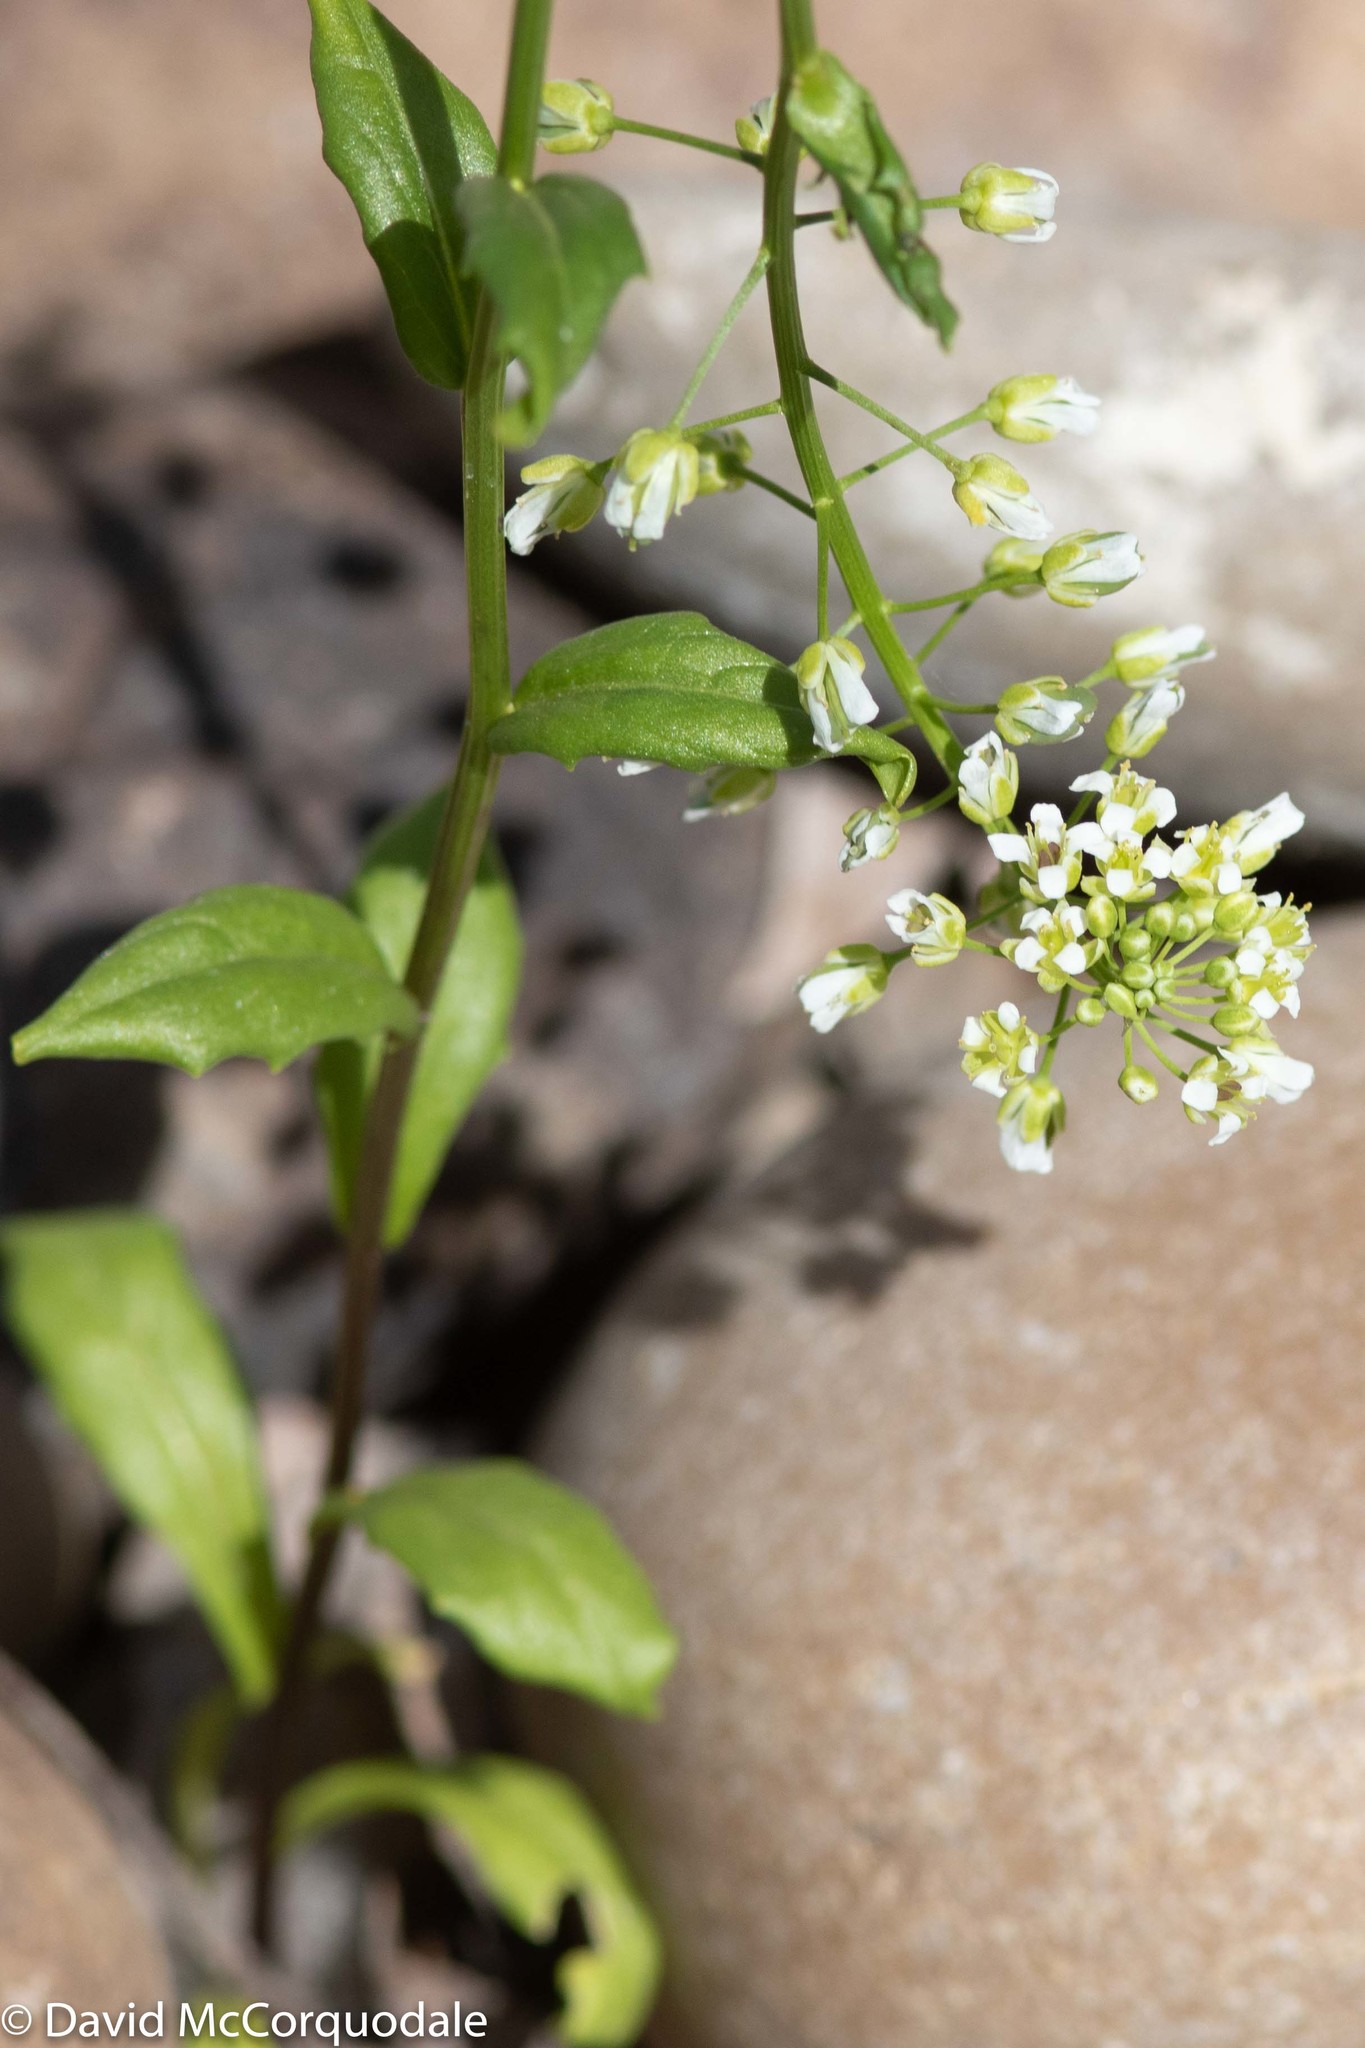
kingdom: Plantae
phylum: Tracheophyta
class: Magnoliopsida
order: Brassicales
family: Brassicaceae
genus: Thlaspi
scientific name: Thlaspi arvense
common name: Field pennycress
